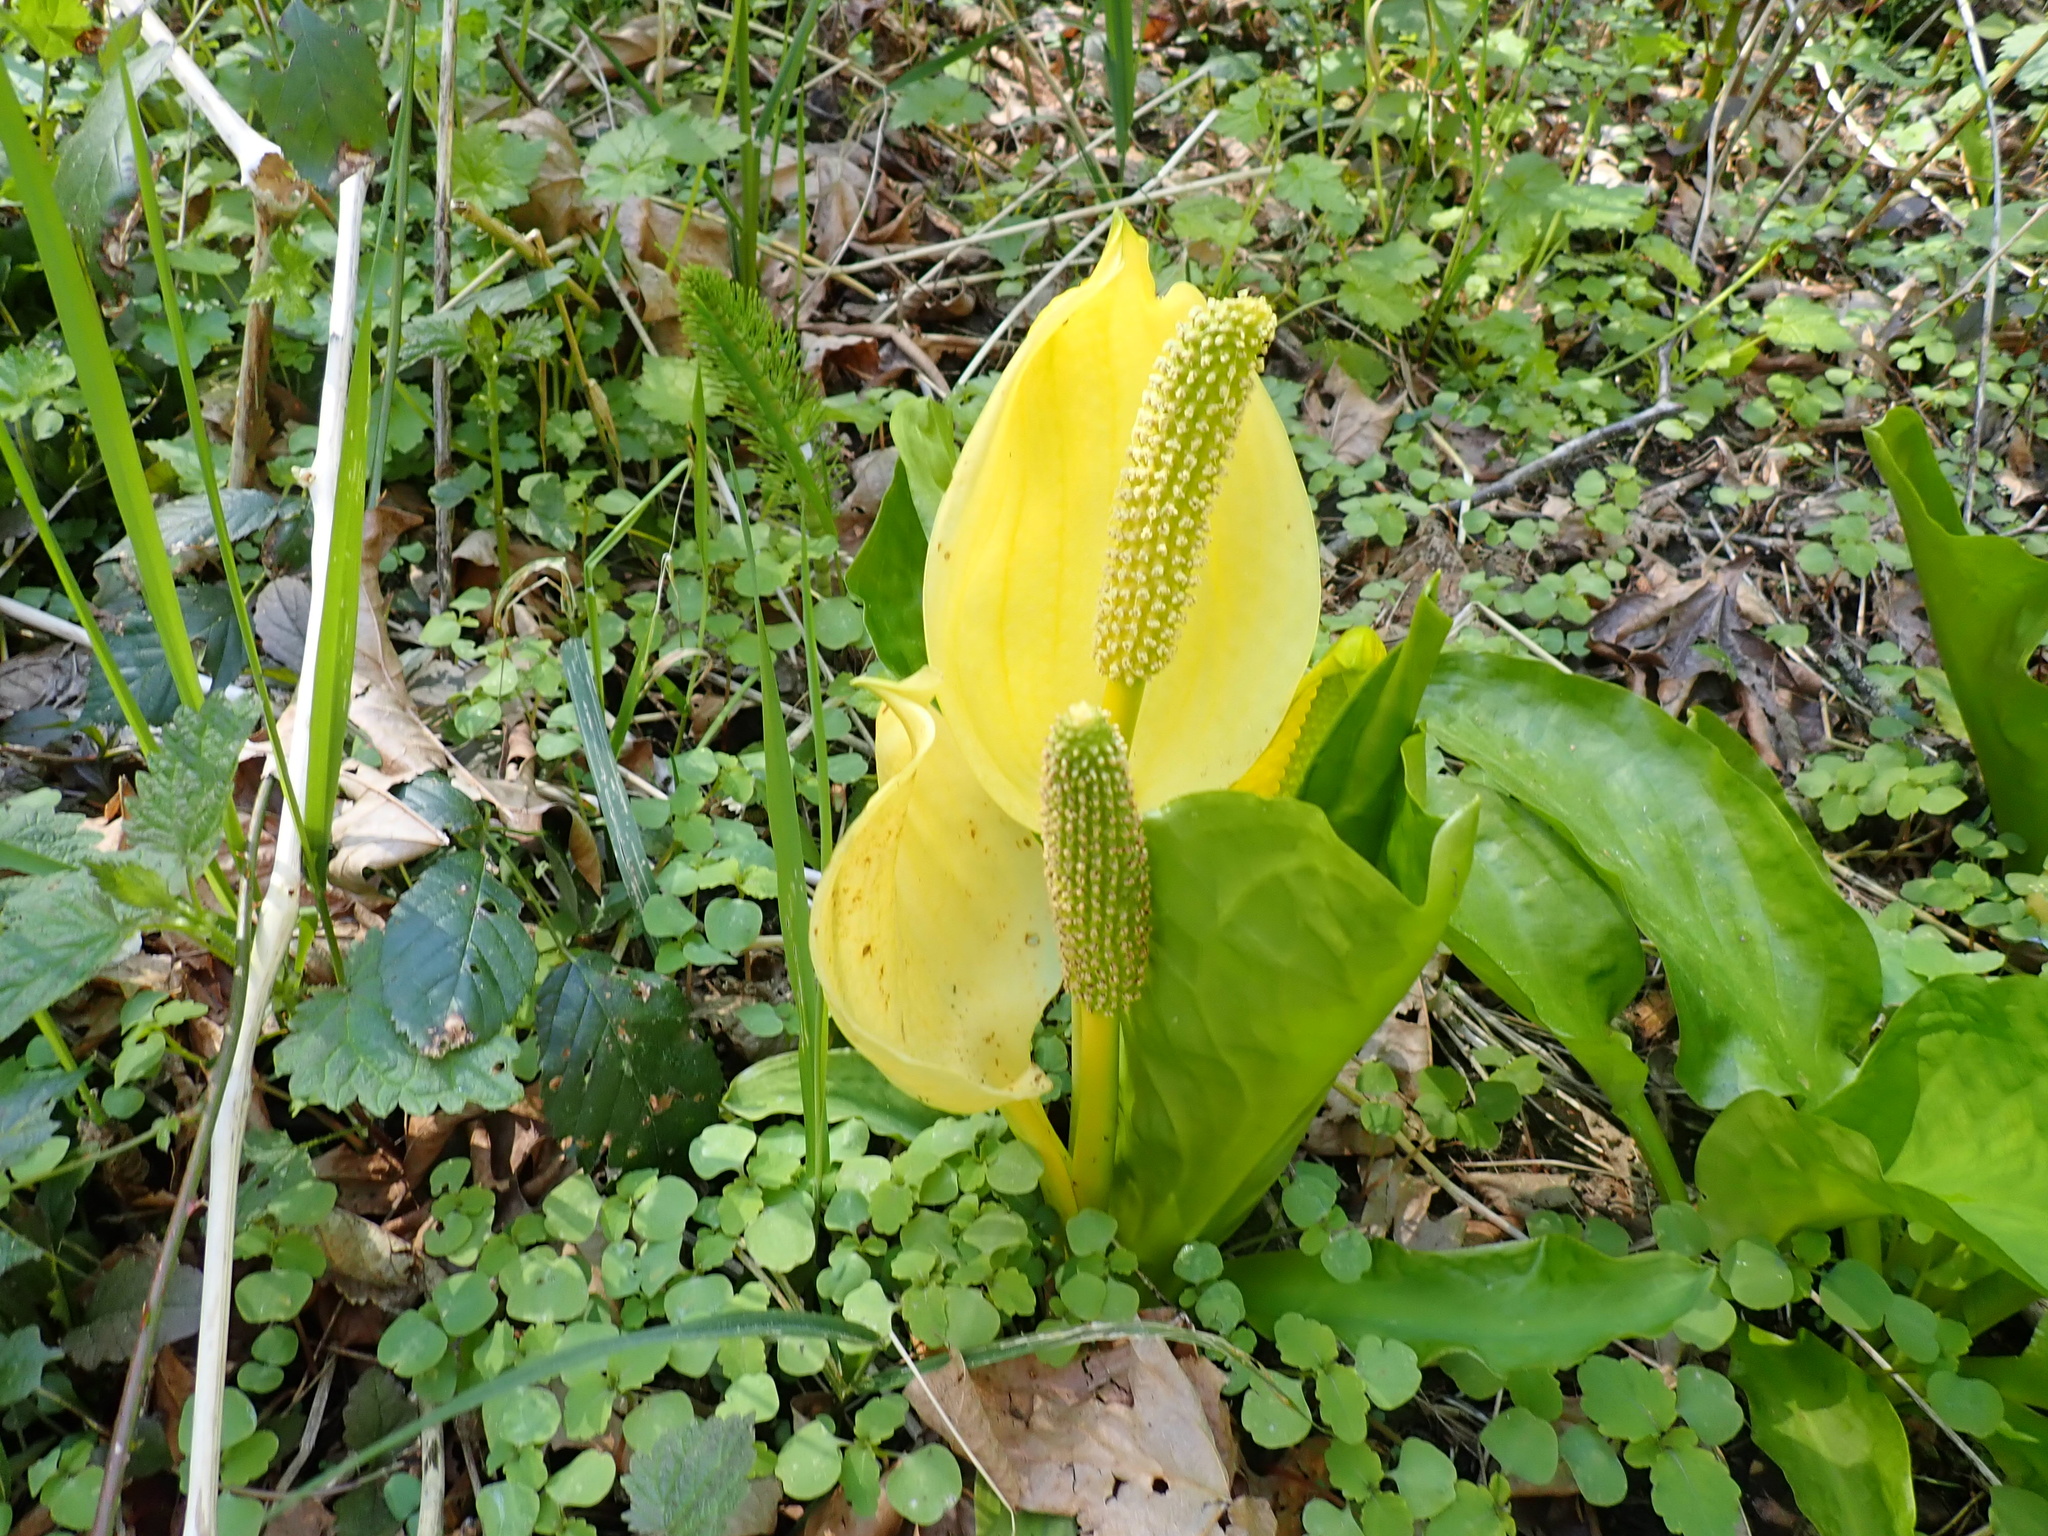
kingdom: Plantae
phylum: Tracheophyta
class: Liliopsida
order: Alismatales
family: Araceae
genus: Lysichiton
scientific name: Lysichiton americanus
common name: American skunk cabbage
